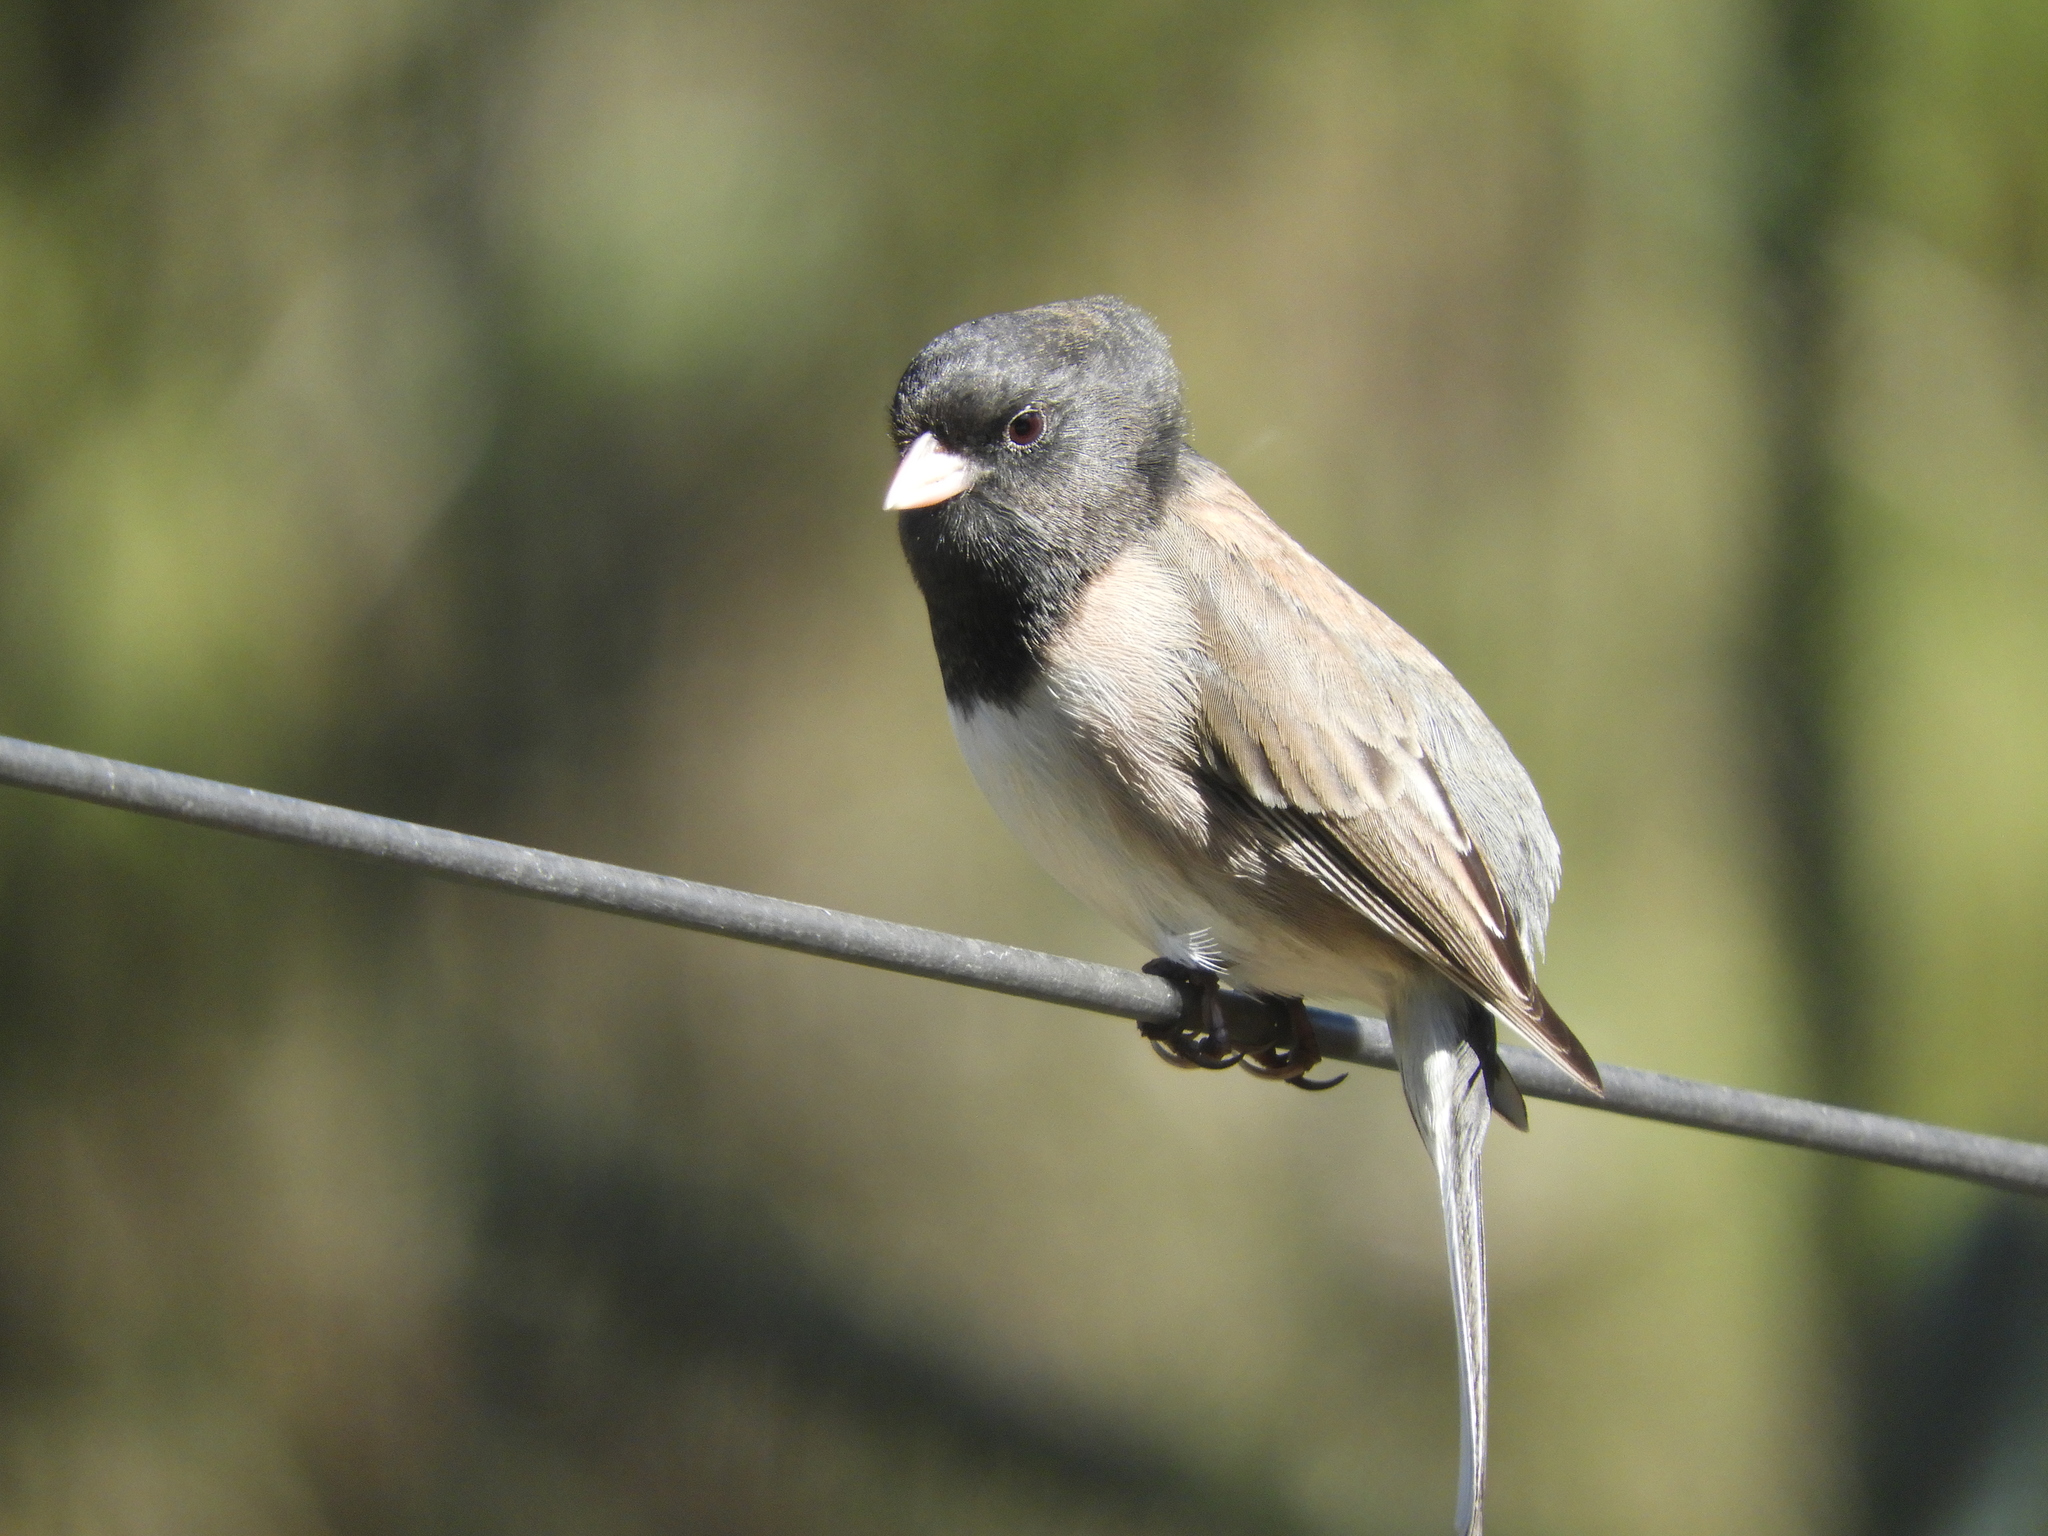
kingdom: Animalia
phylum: Chordata
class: Aves
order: Passeriformes
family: Passerellidae
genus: Junco
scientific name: Junco hyemalis
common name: Dark-eyed junco
